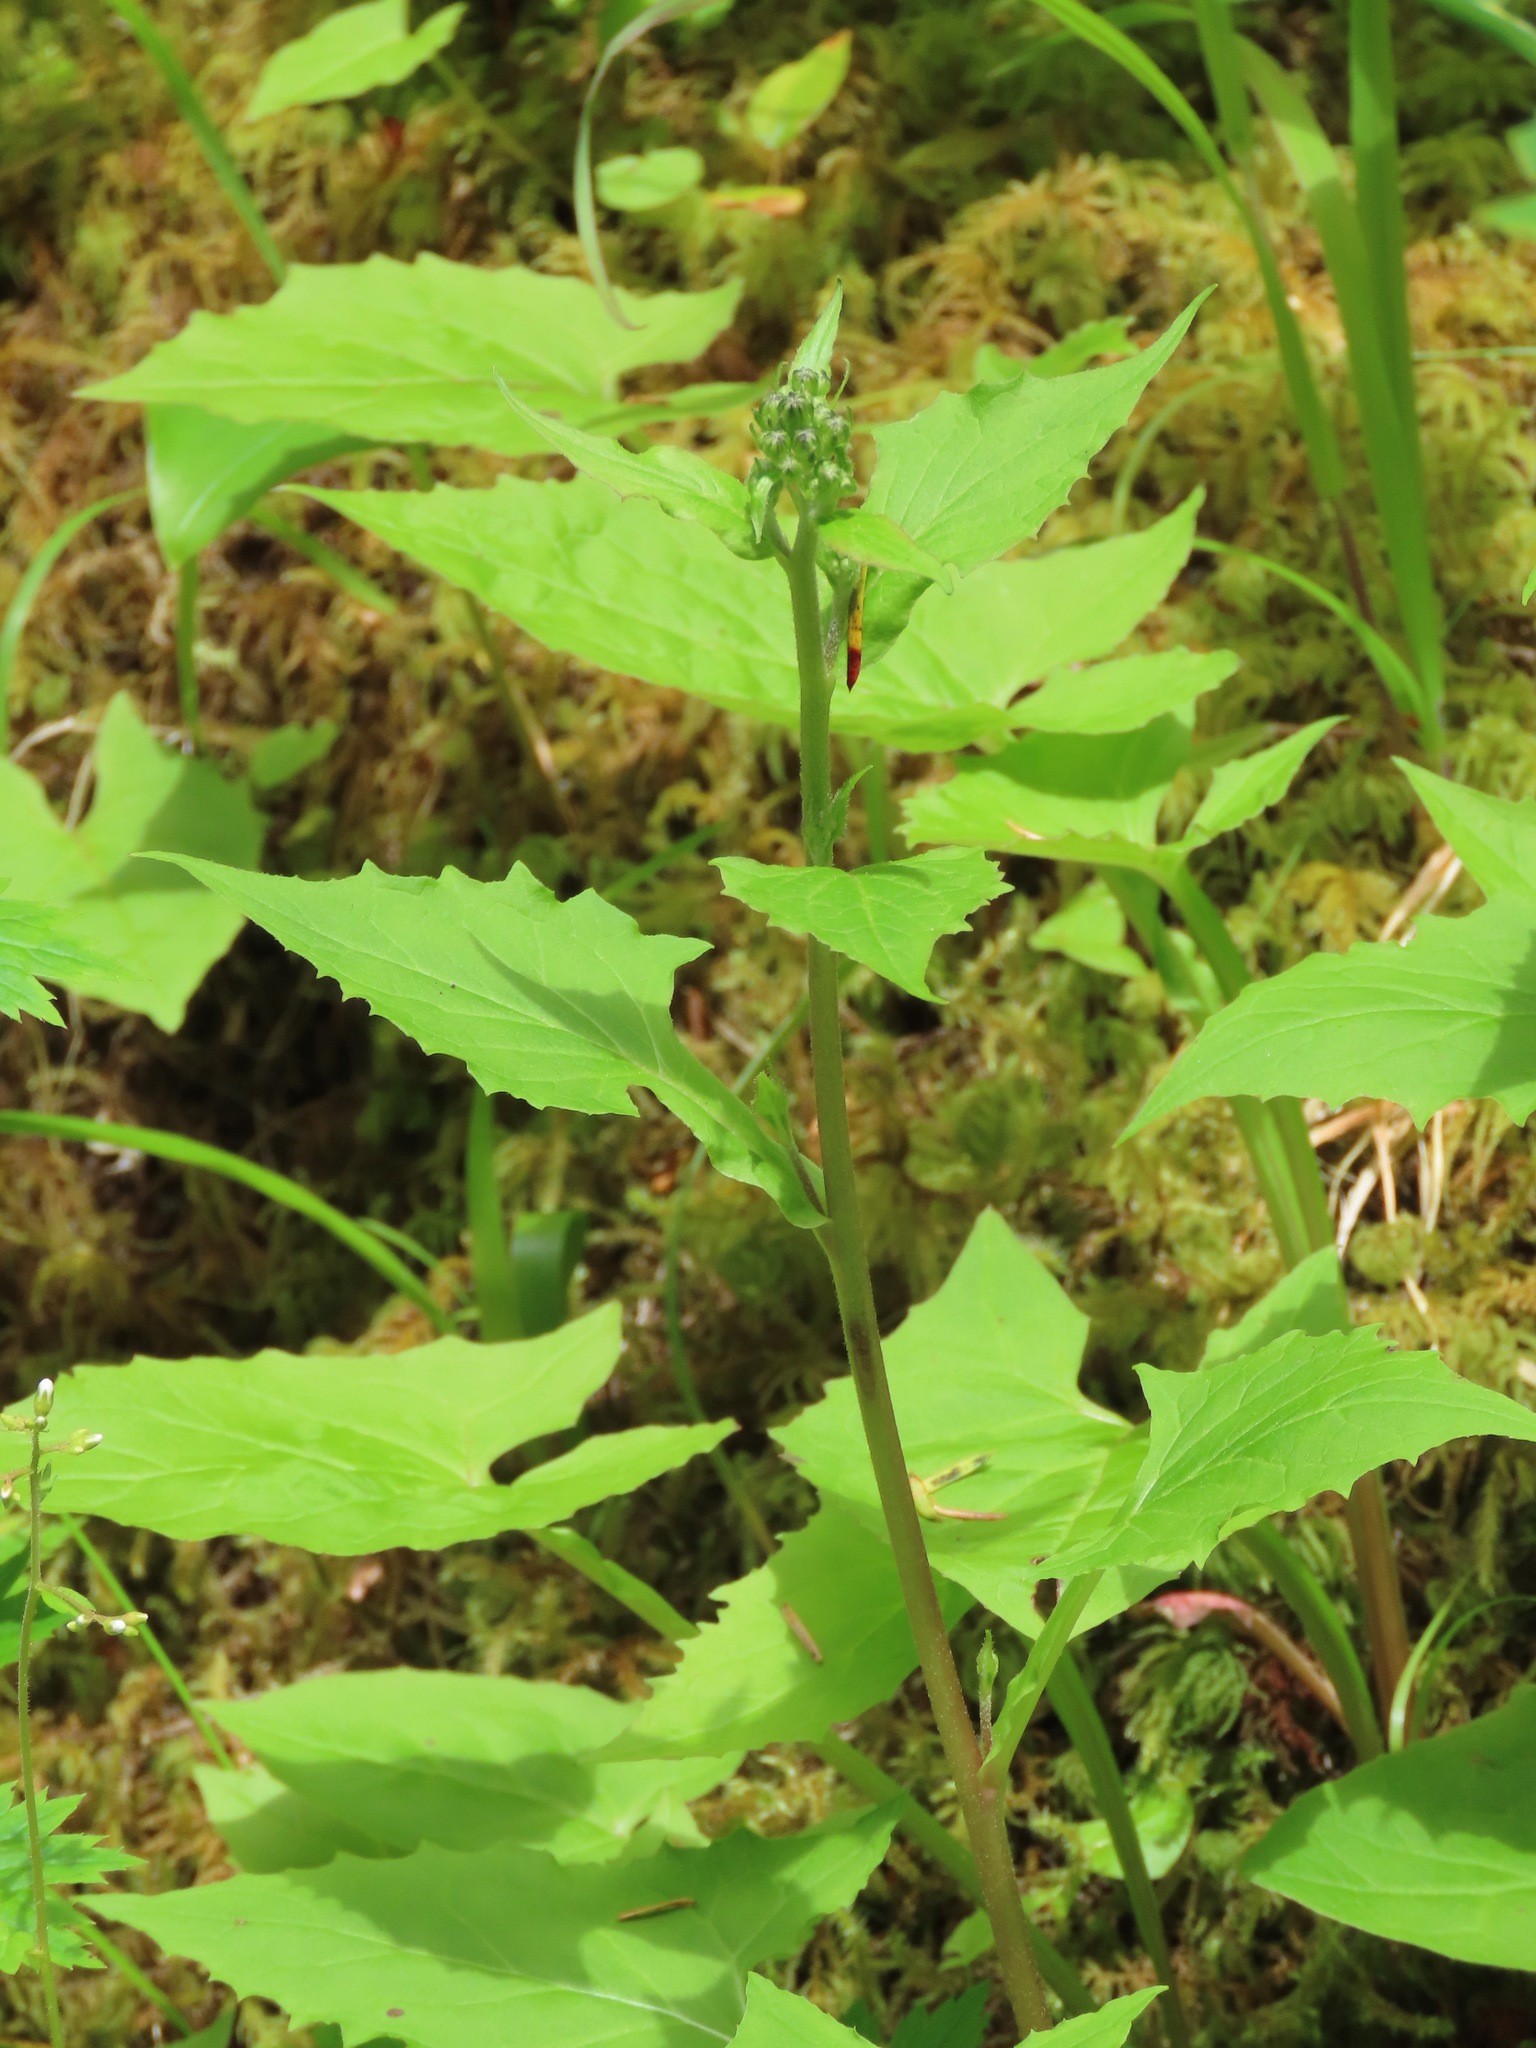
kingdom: Plantae
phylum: Tracheophyta
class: Magnoliopsida
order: Asterales
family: Asteraceae
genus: Nabalus
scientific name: Nabalus hastatus
